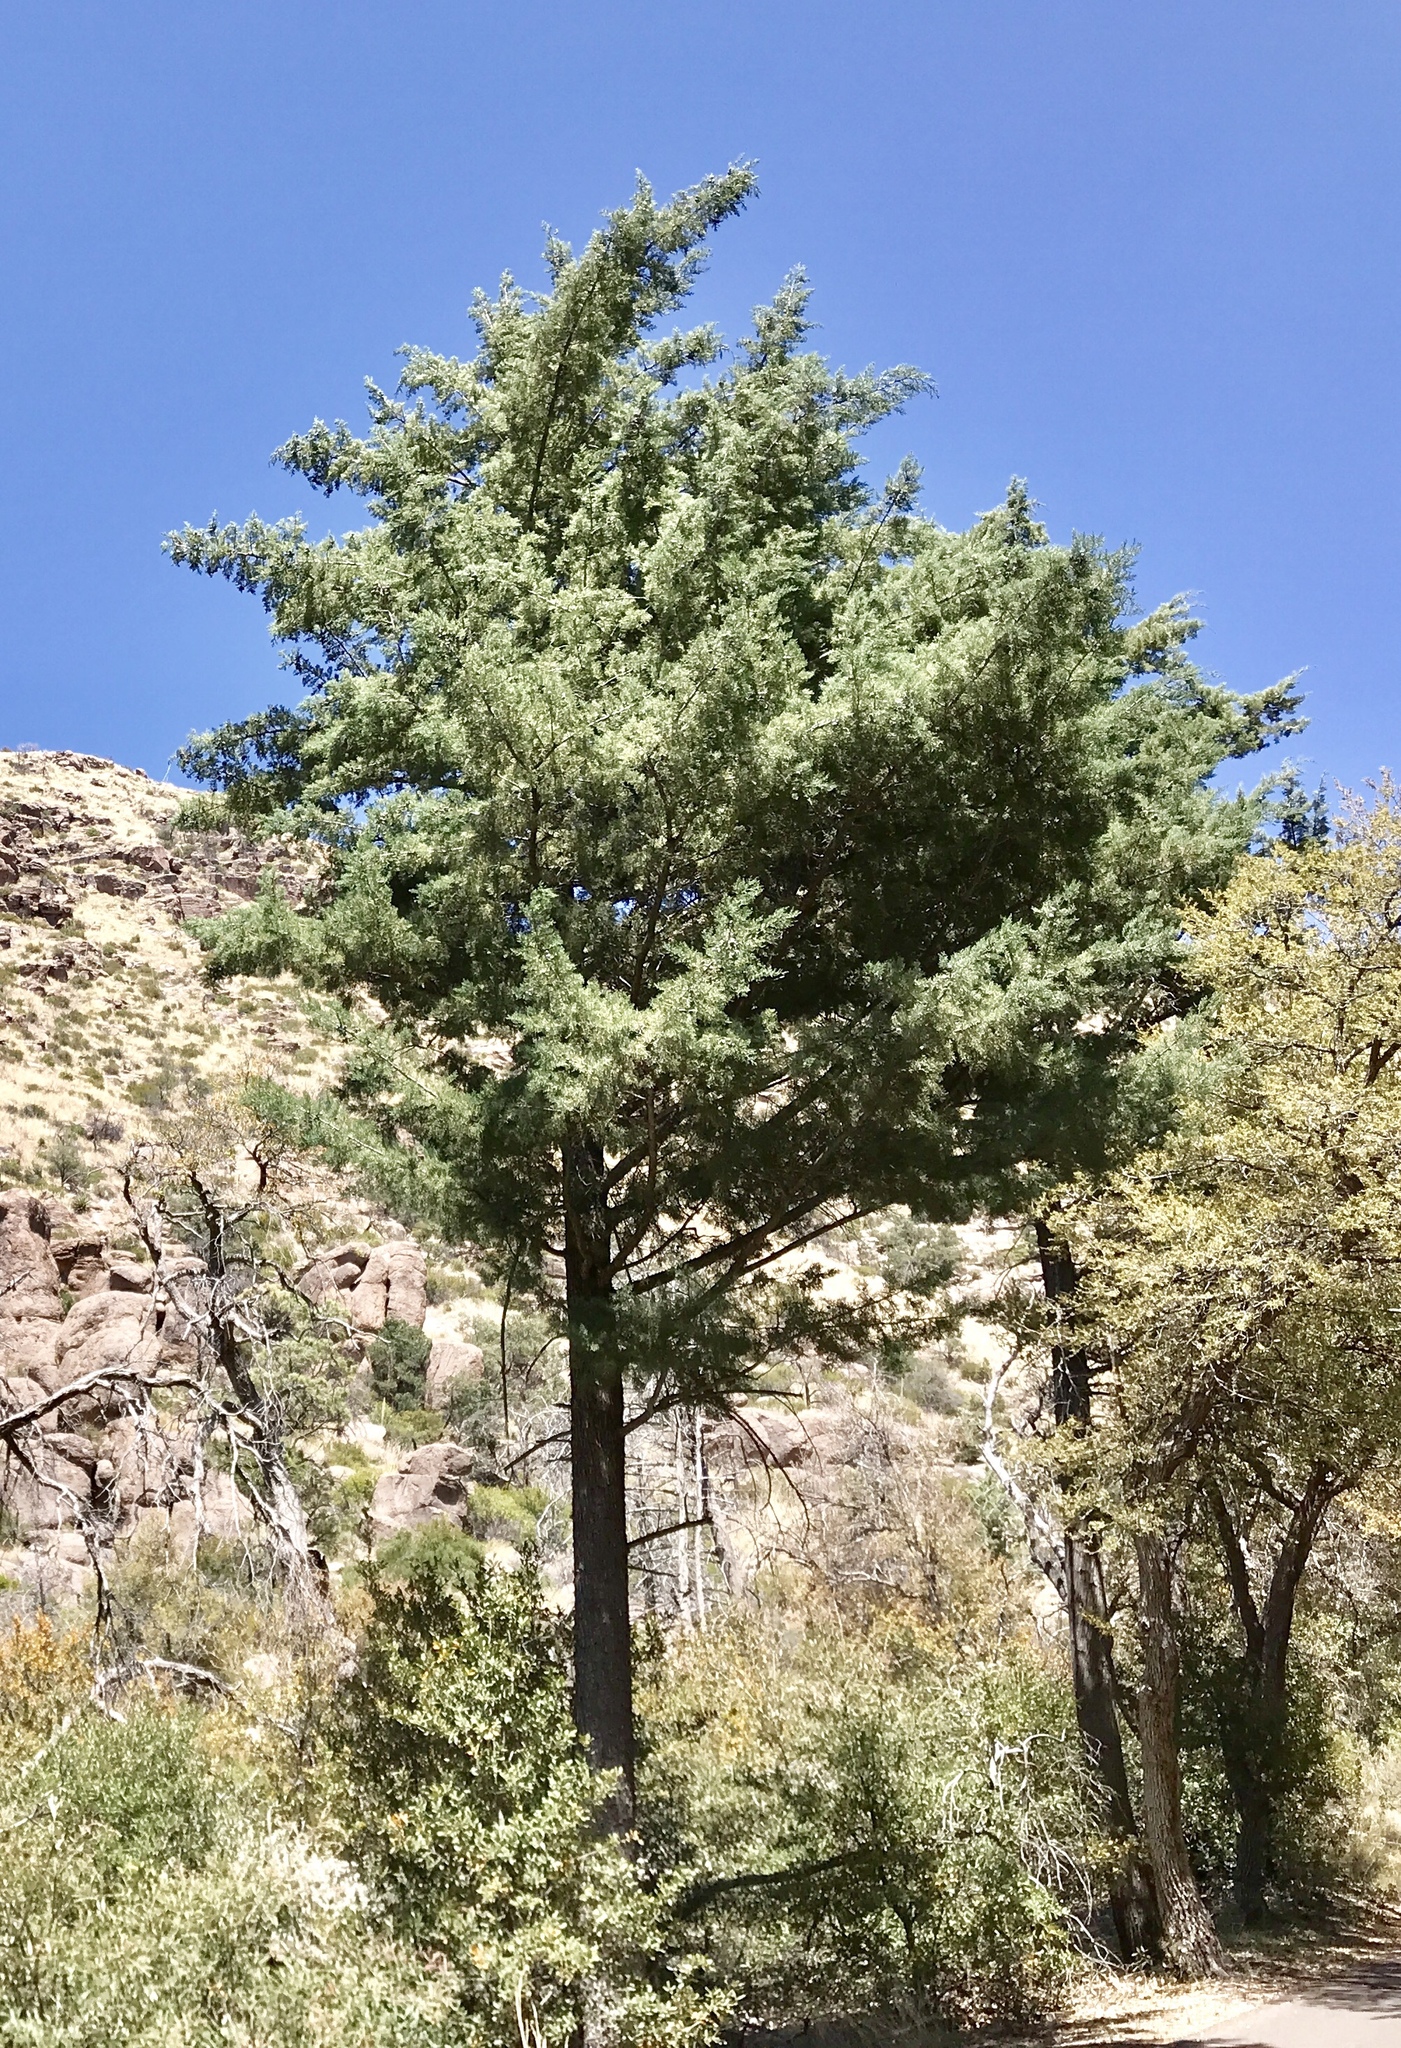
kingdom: Plantae
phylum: Tracheophyta
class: Pinopsida
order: Pinales
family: Cupressaceae
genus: Cupressus
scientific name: Cupressus arizonica
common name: Arizona cypress
